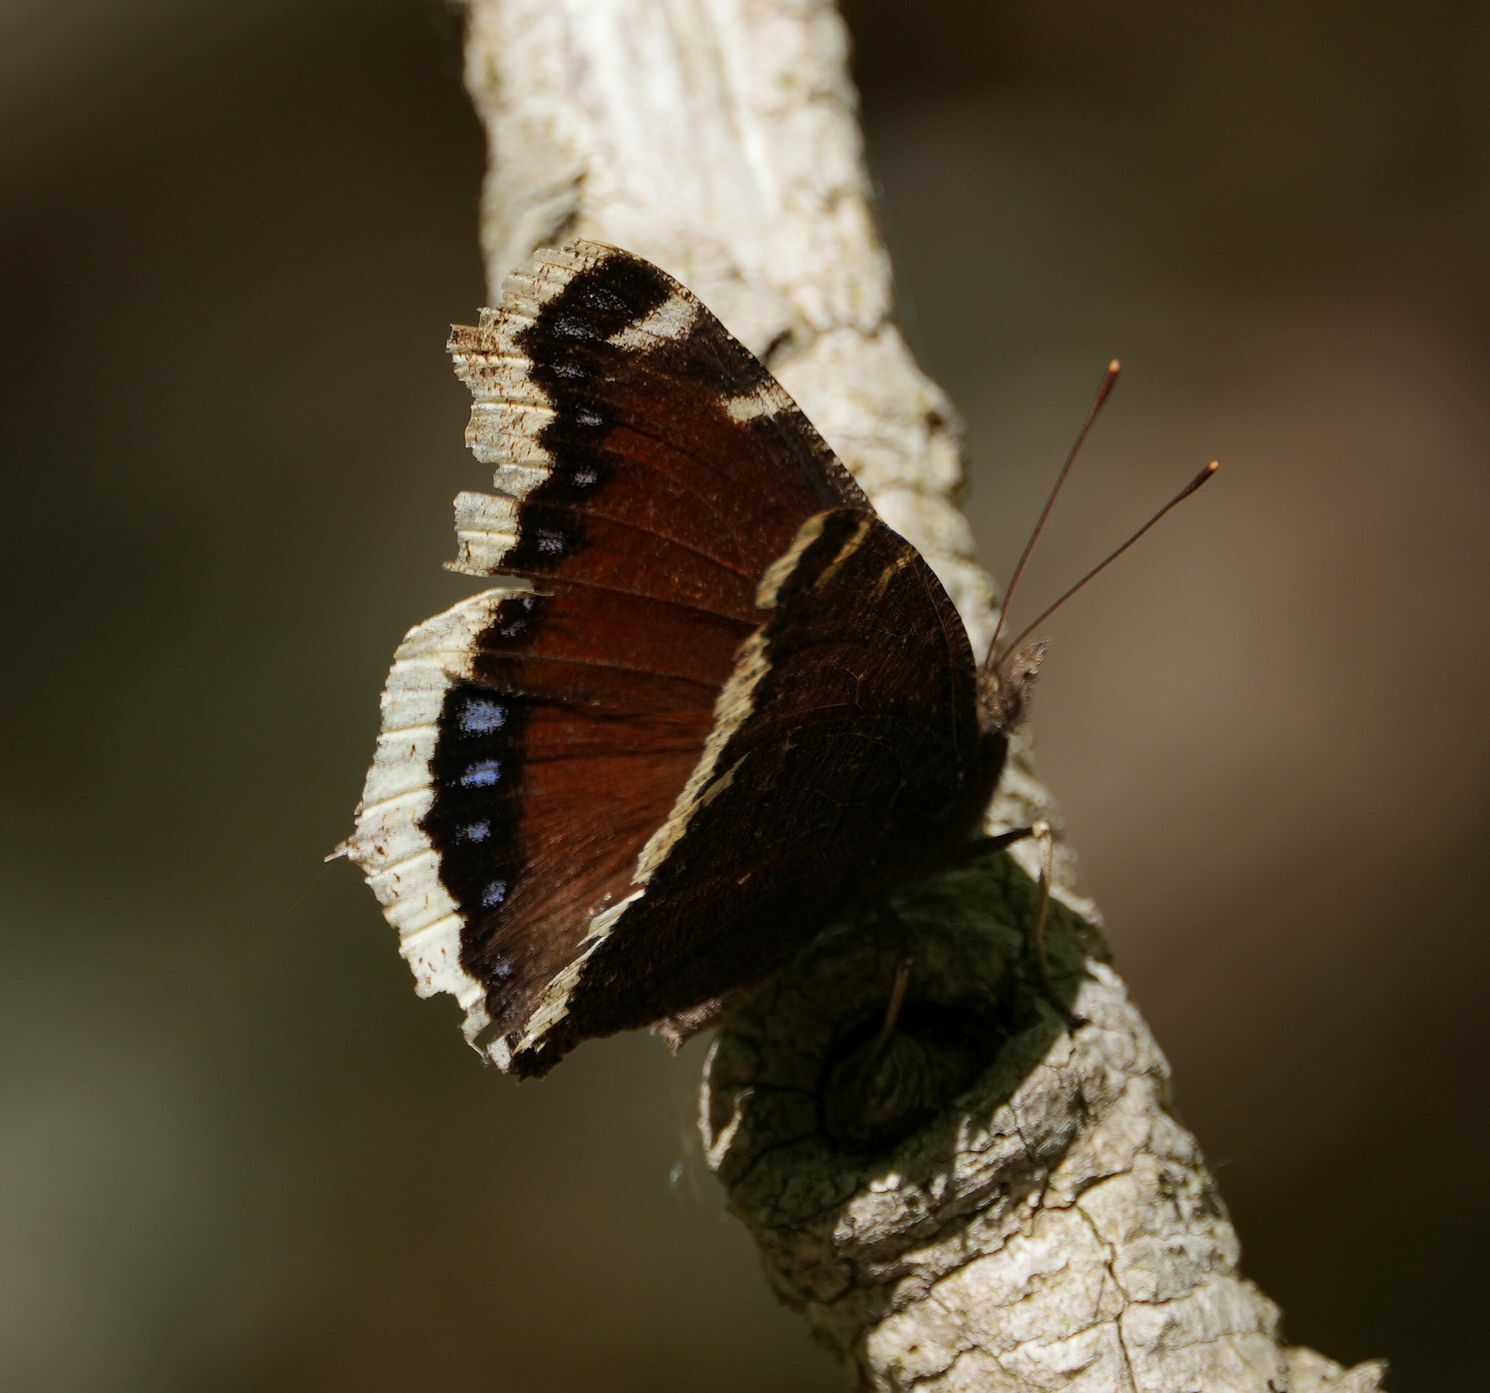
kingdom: Animalia
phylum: Arthropoda
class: Insecta
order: Lepidoptera
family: Nymphalidae
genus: Nymphalis
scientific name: Nymphalis antiopa
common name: Camberwell beauty
